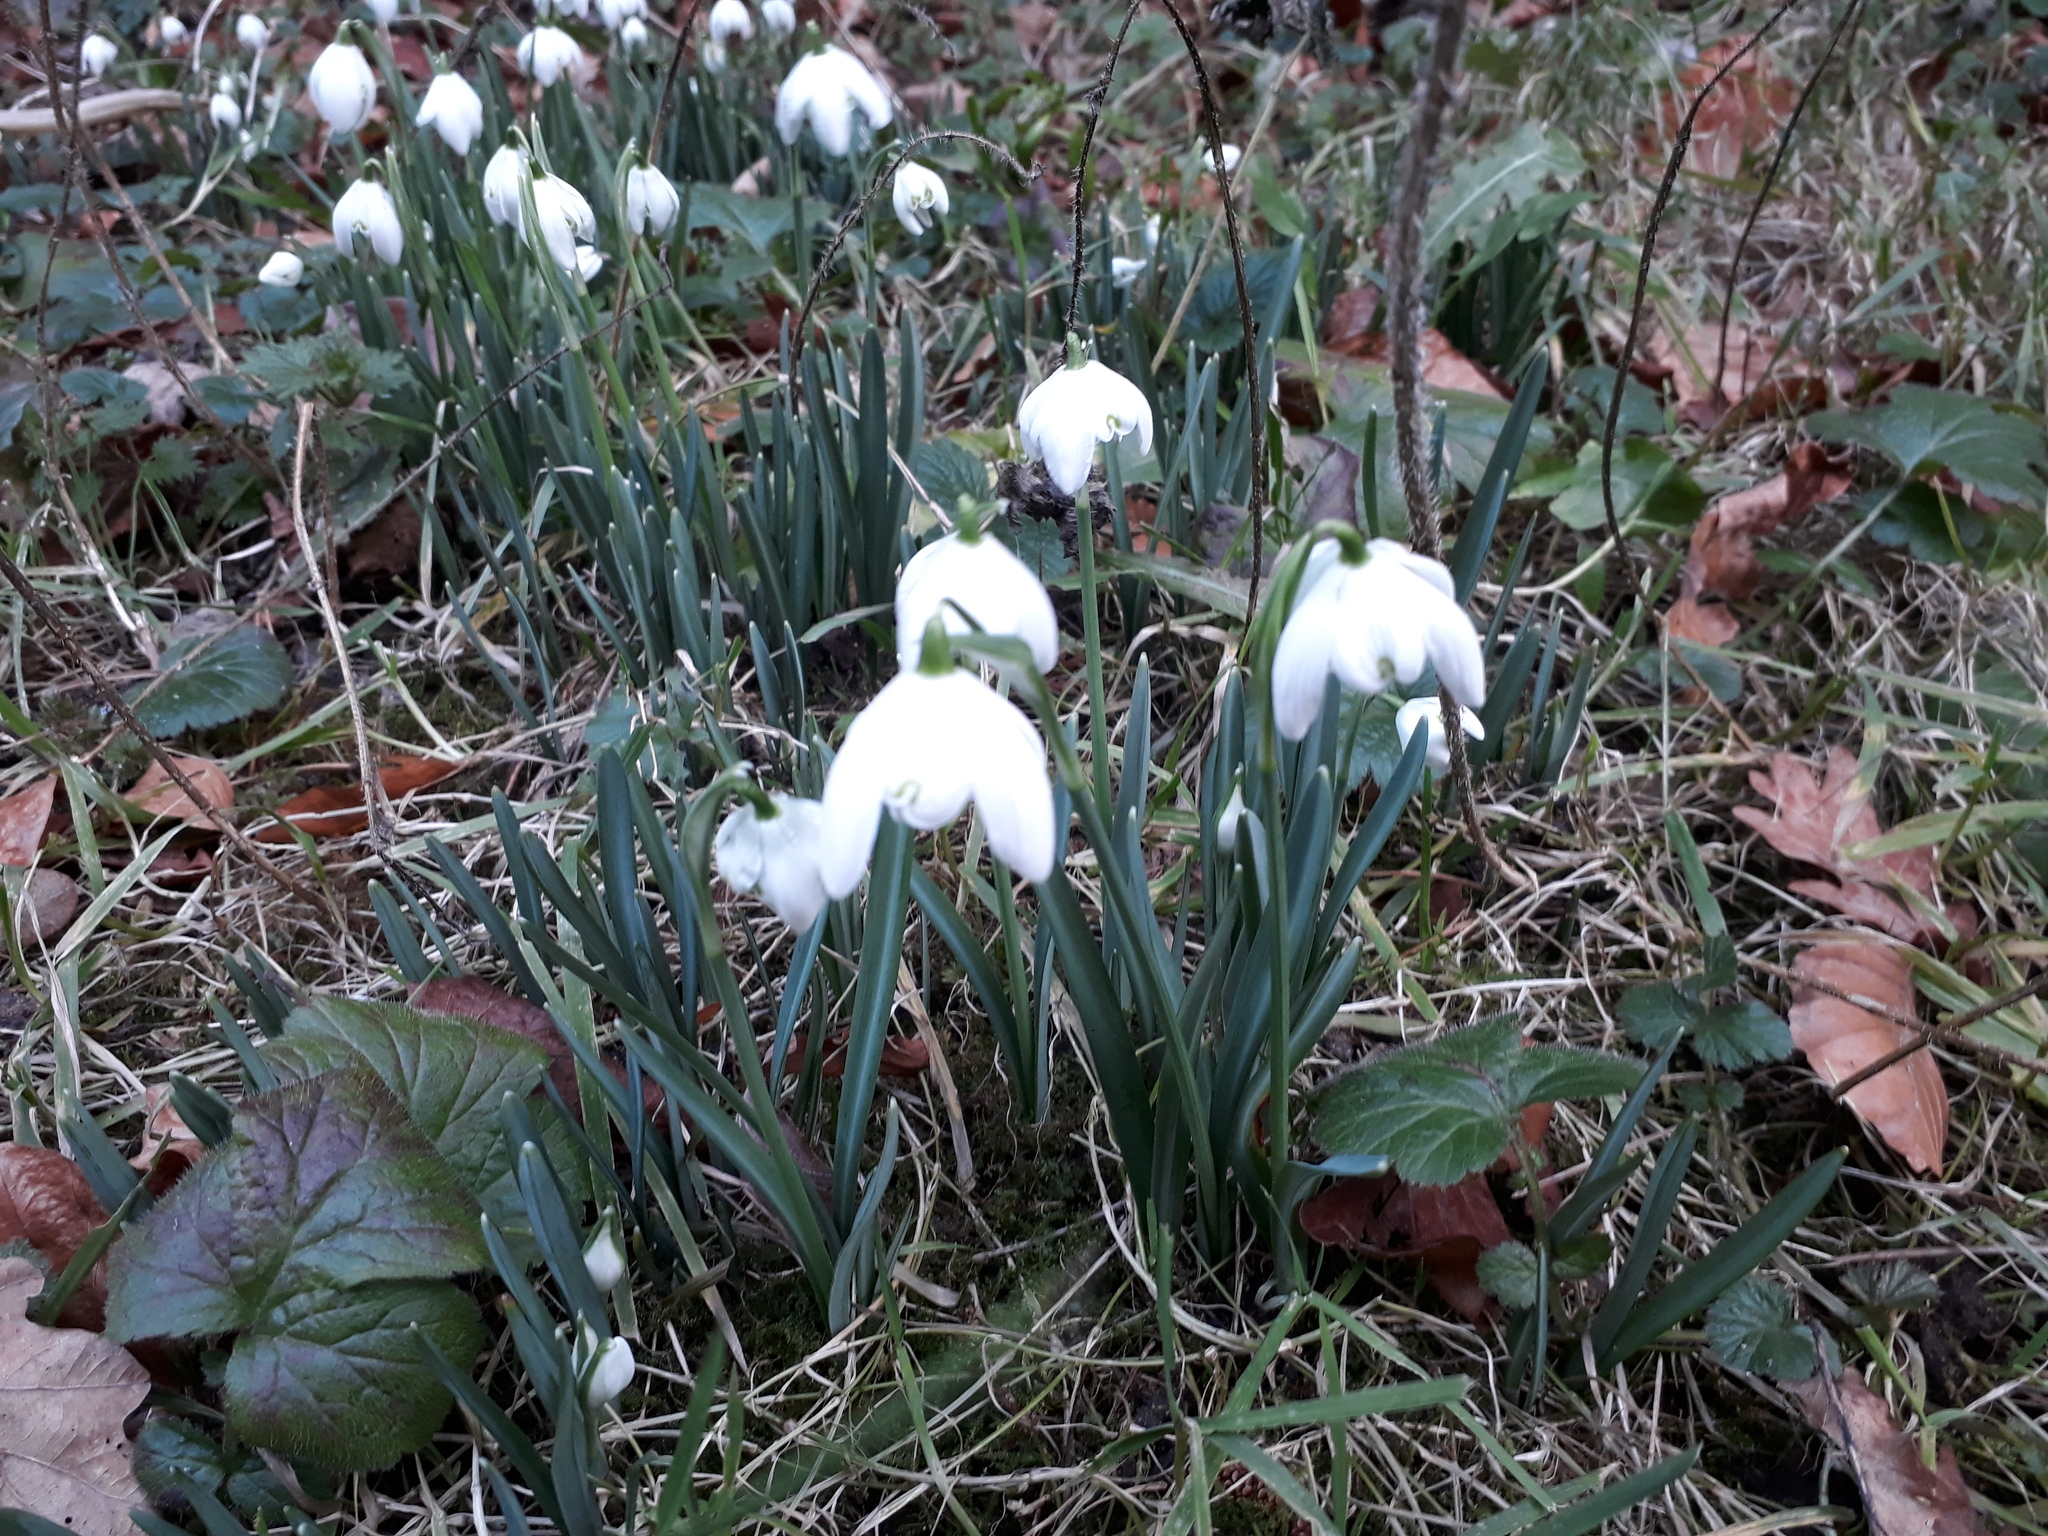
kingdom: Plantae
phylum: Tracheophyta
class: Liliopsida
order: Asparagales
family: Amaryllidaceae
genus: Galanthus
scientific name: Galanthus nivalis
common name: Snowdrop
